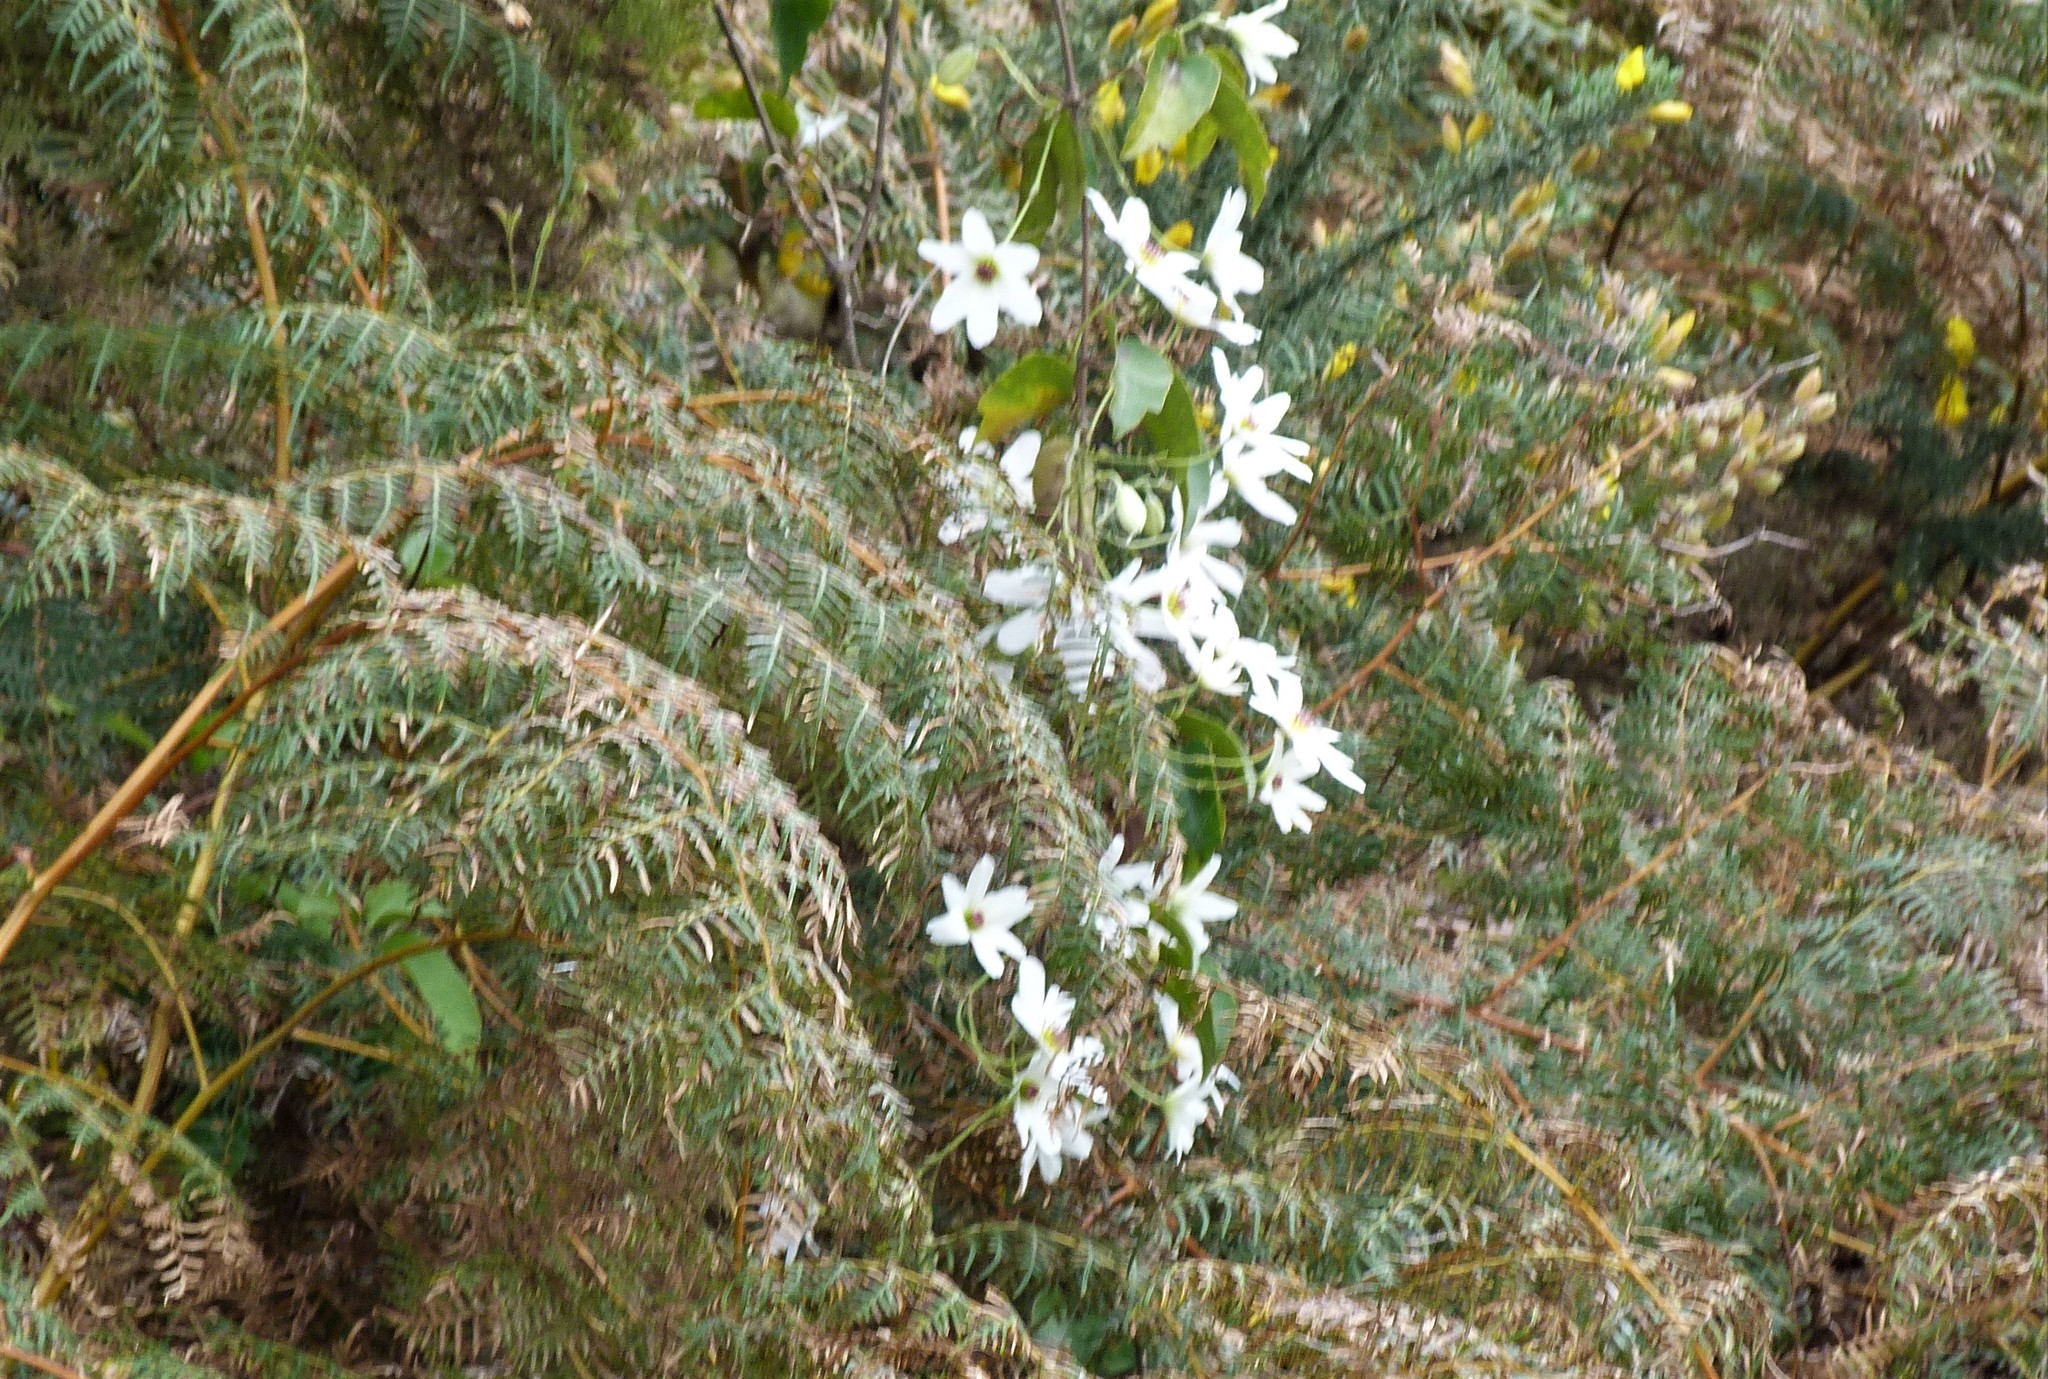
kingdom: Plantae
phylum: Tracheophyta
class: Magnoliopsida
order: Ranunculales
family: Ranunculaceae
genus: Clematis
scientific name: Clematis paniculata
